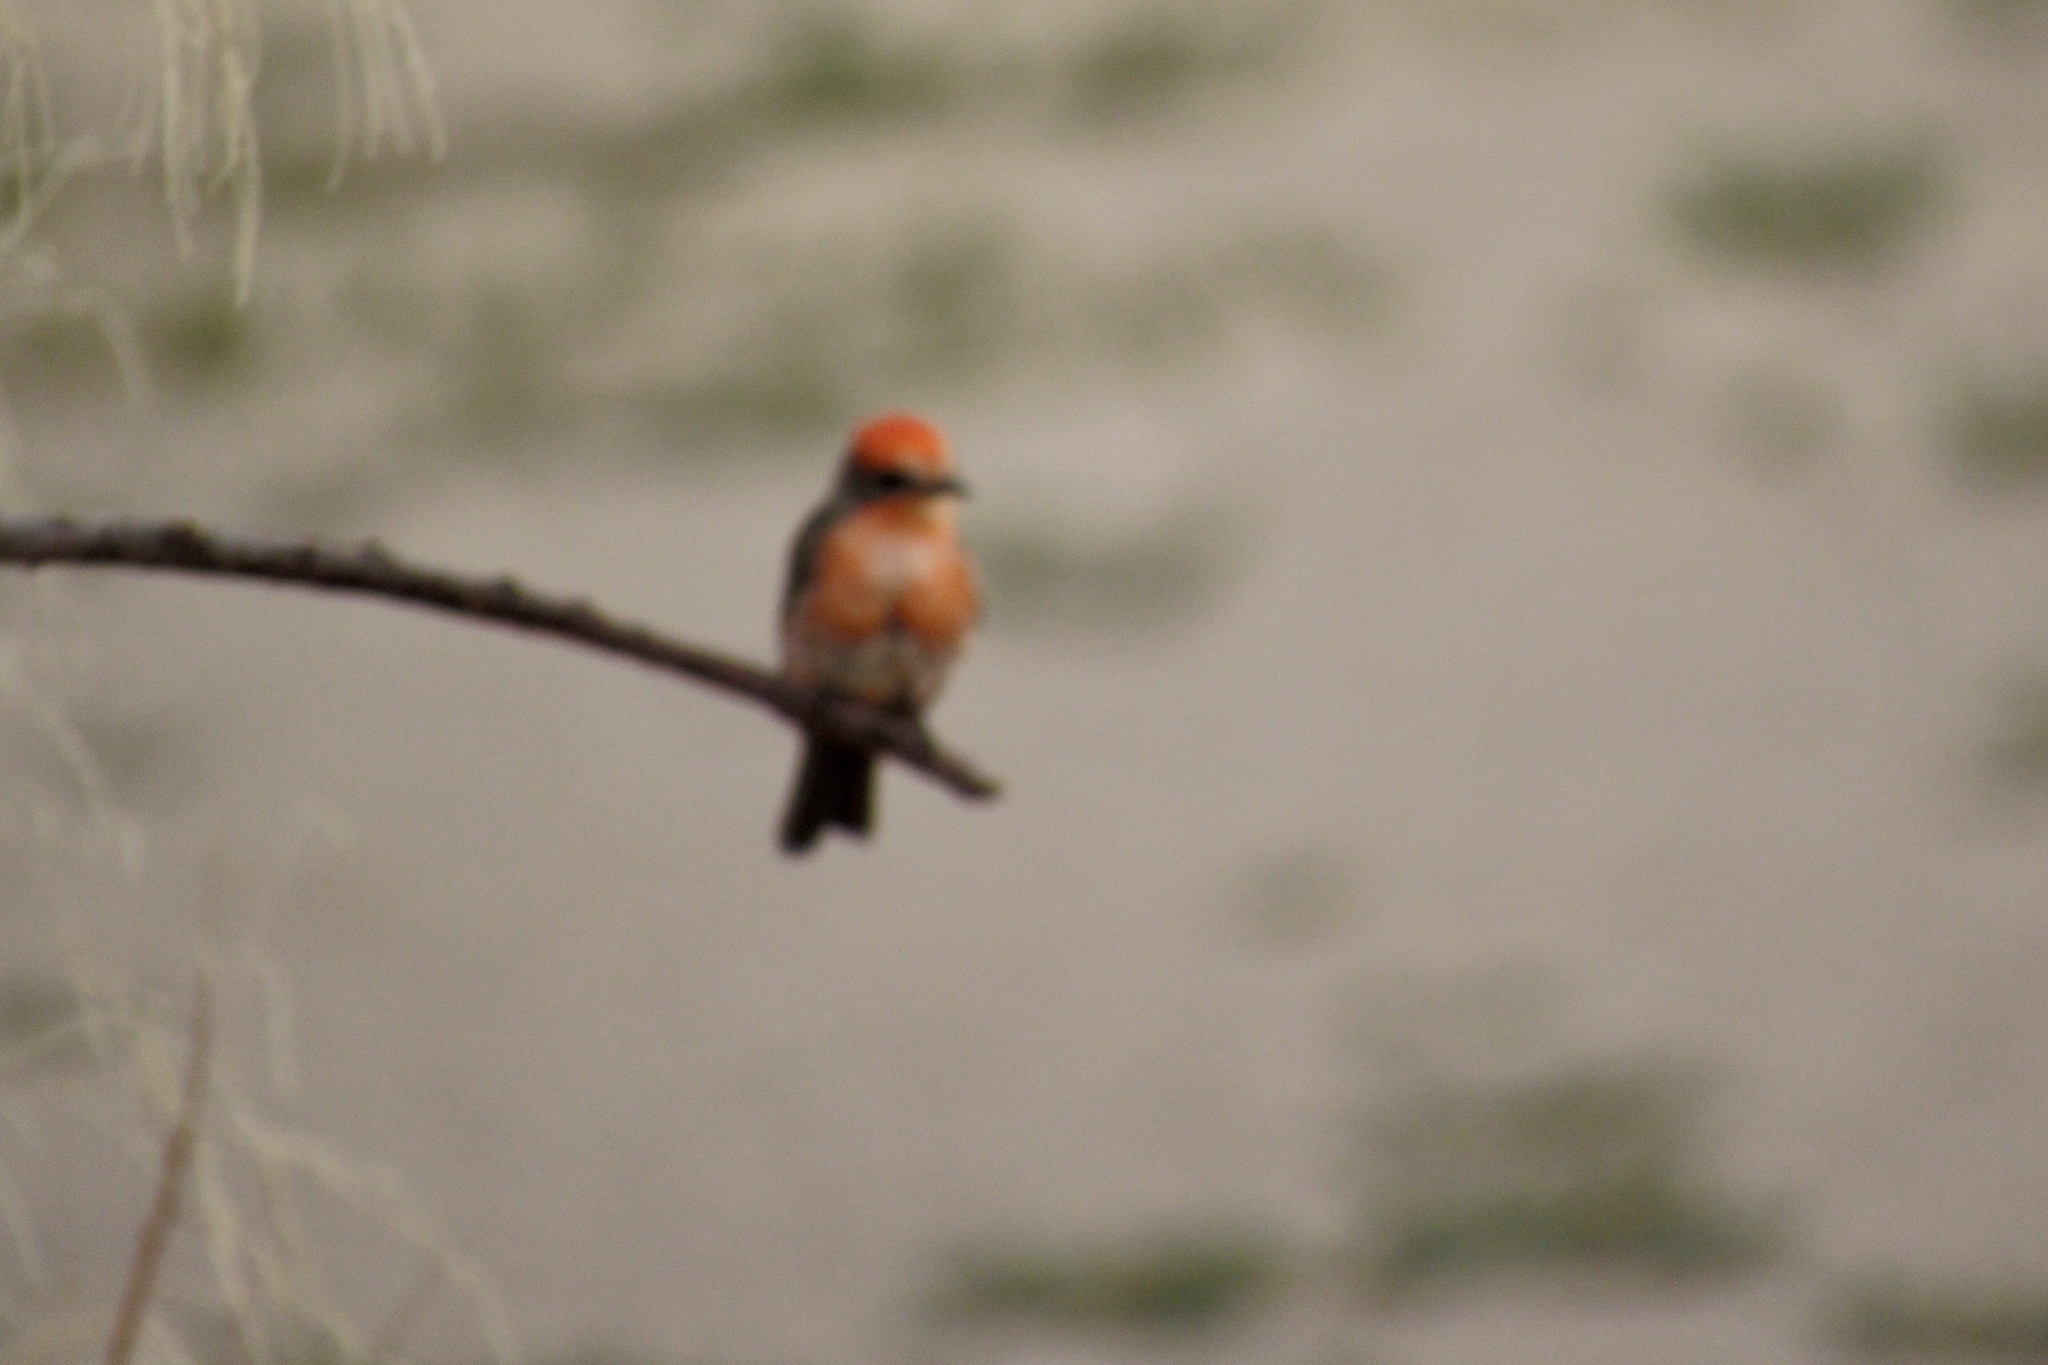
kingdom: Animalia
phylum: Chordata
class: Aves
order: Passeriformes
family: Tyrannidae
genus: Pyrocephalus
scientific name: Pyrocephalus rubinus
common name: Vermilion flycatcher
